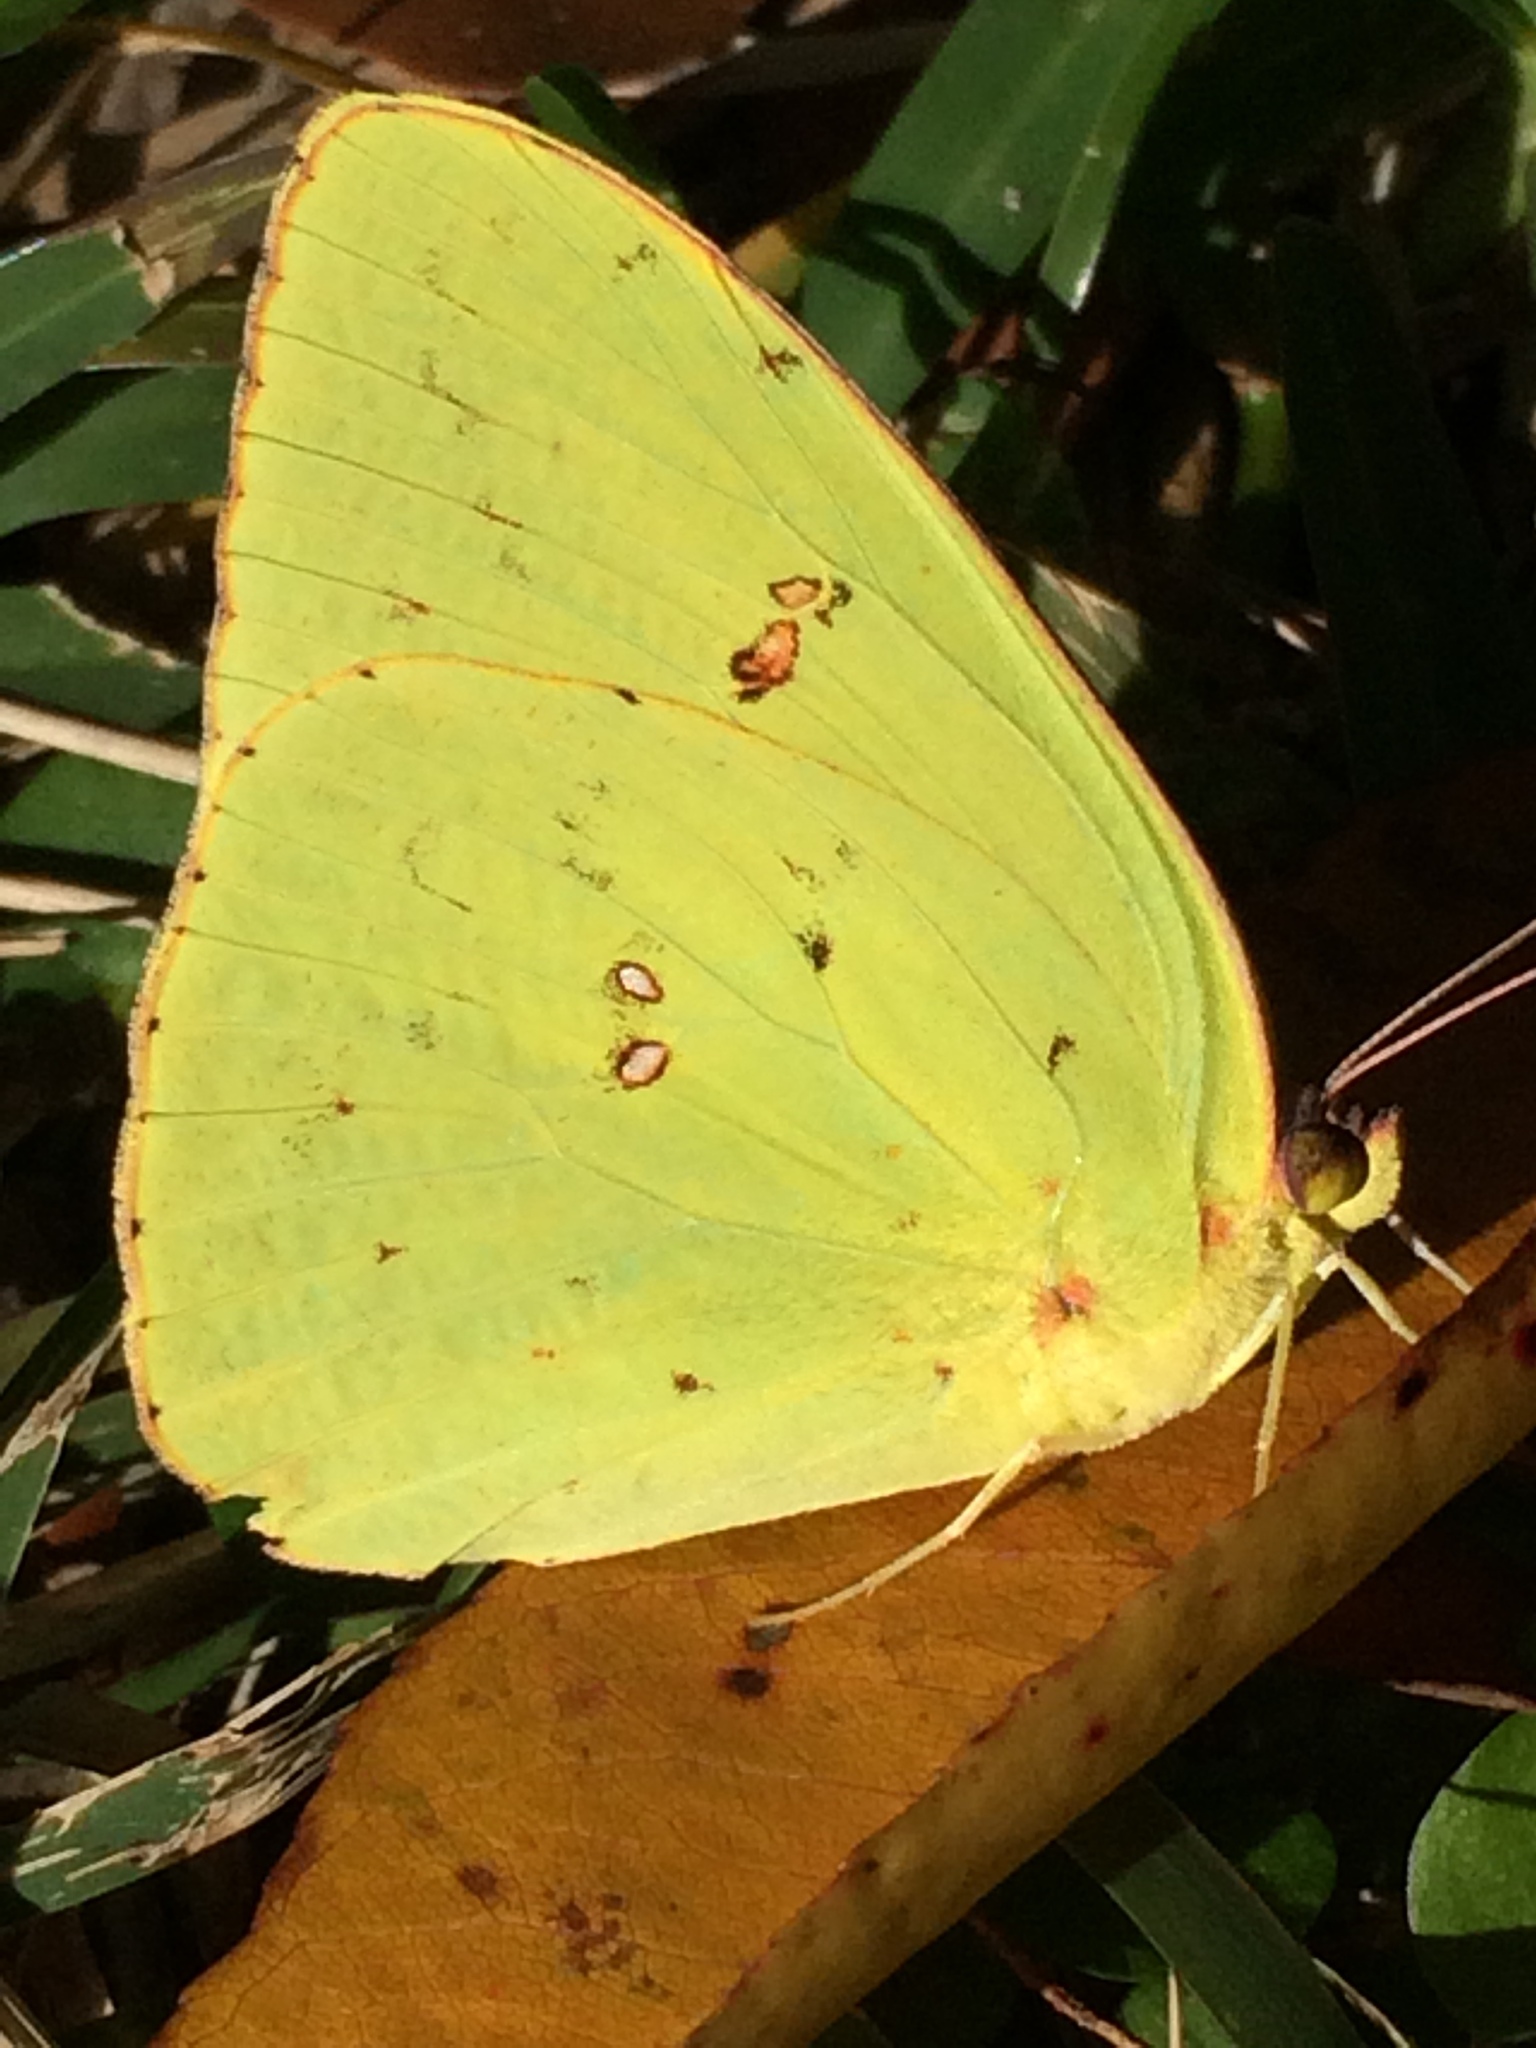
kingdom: Animalia
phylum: Arthropoda
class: Insecta
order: Lepidoptera
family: Pieridae
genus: Phoebis
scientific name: Phoebis sennae
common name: Cloudless sulphur
